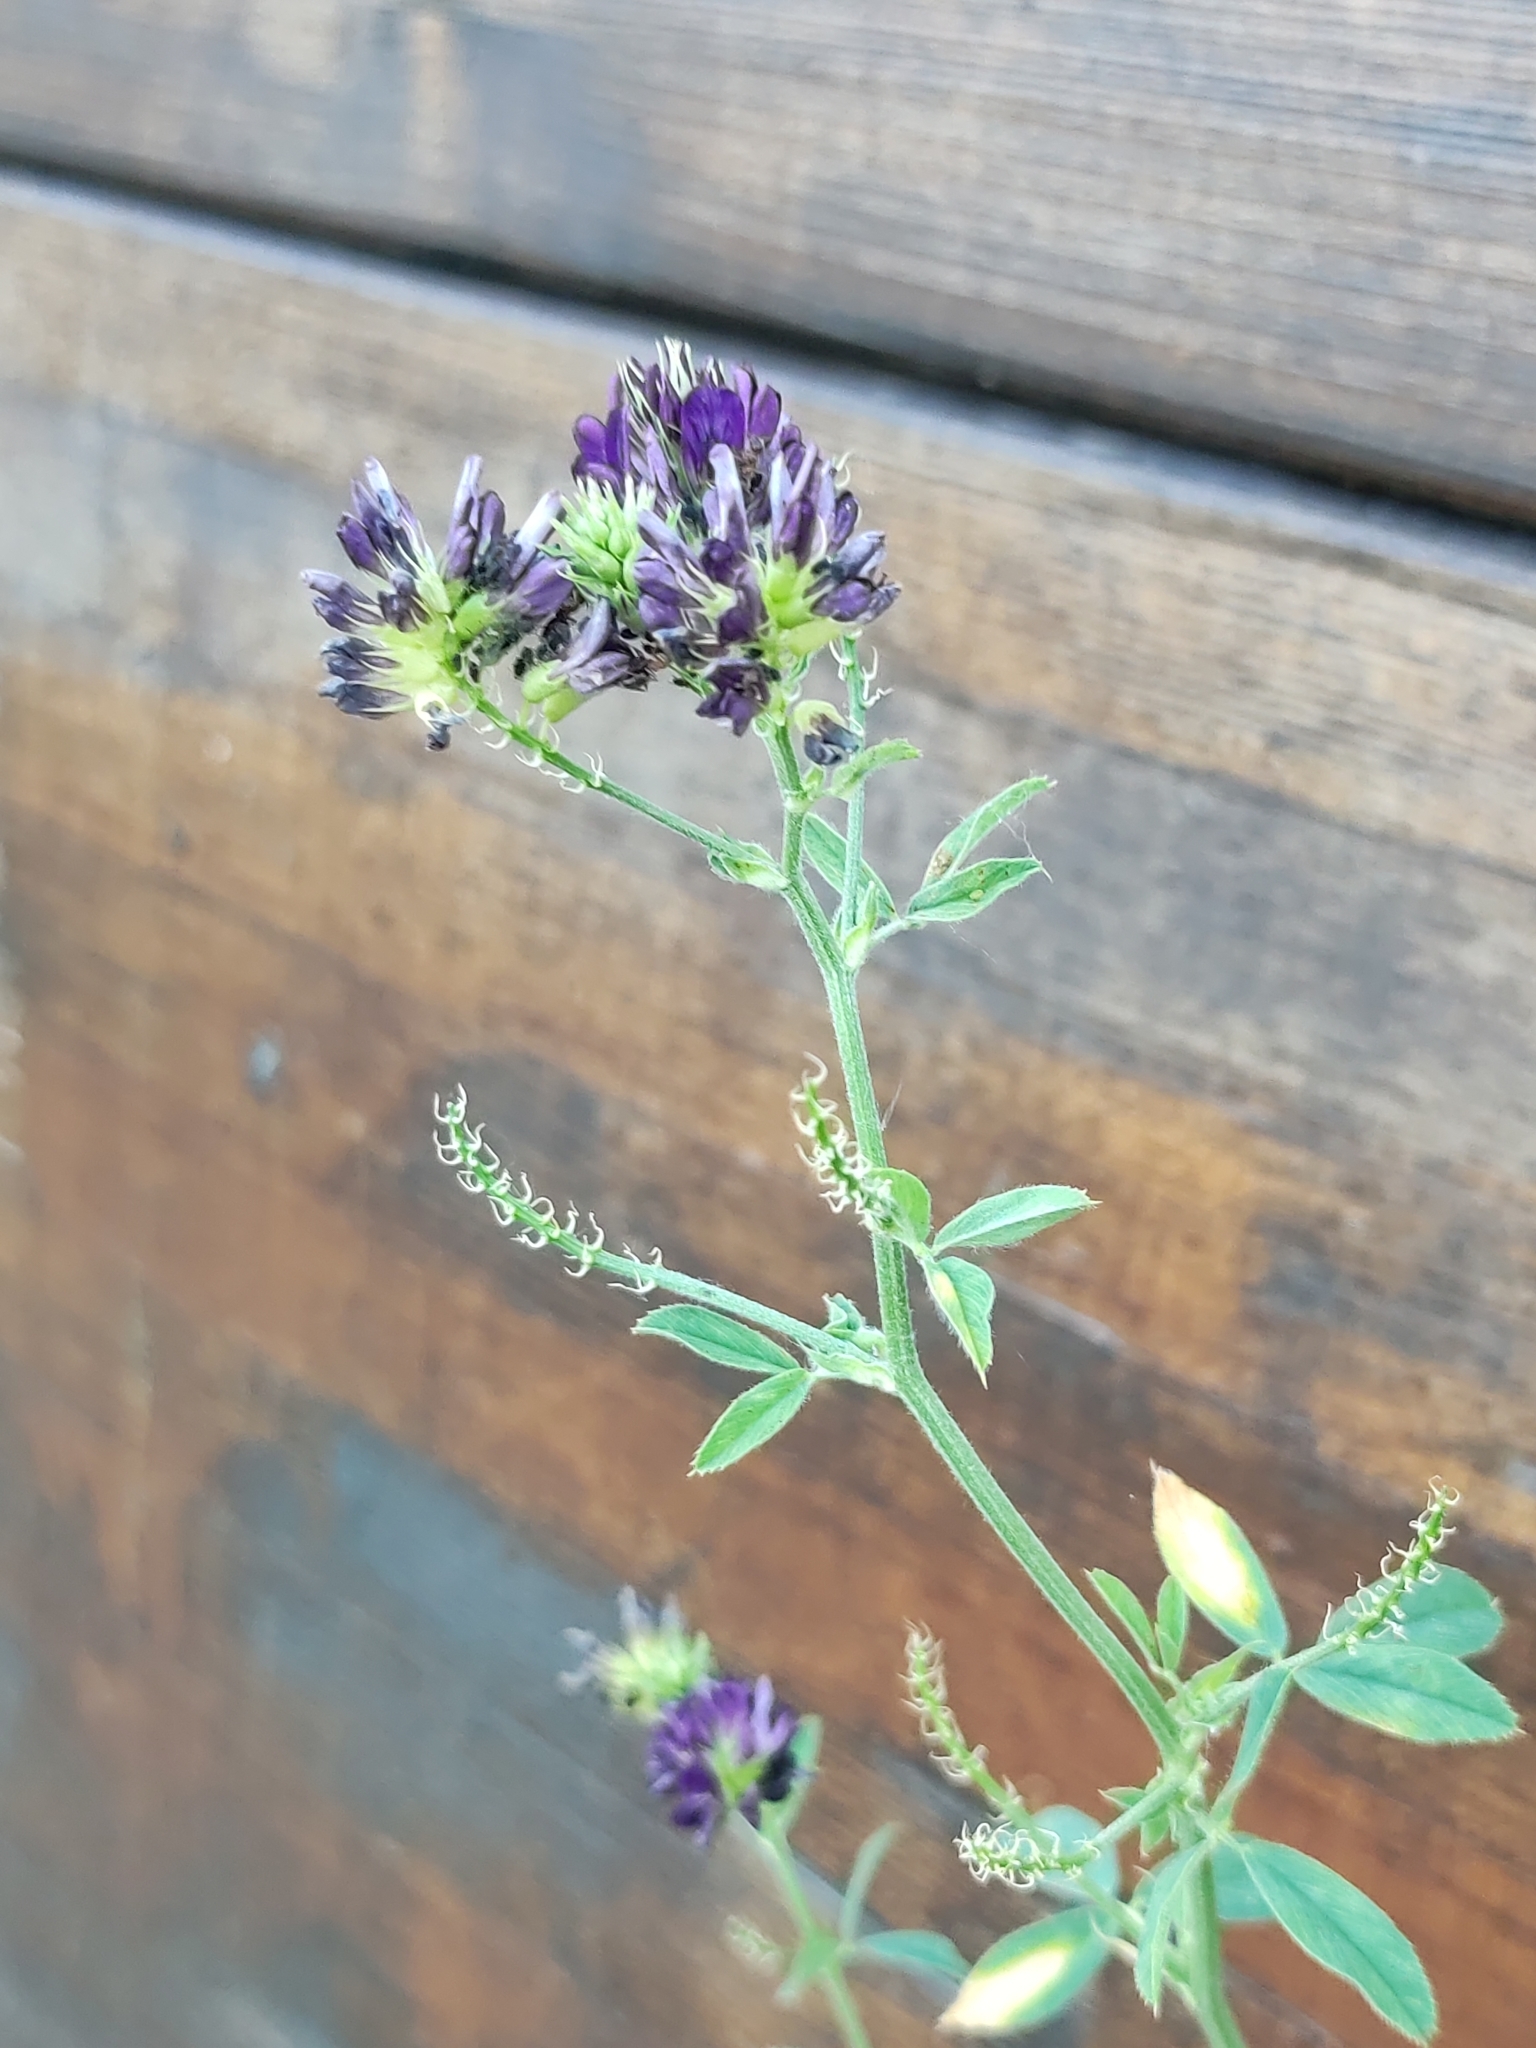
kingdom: Plantae
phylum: Tracheophyta
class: Magnoliopsida
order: Fabales
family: Fabaceae
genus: Medicago
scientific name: Medicago sativa
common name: Alfalfa
